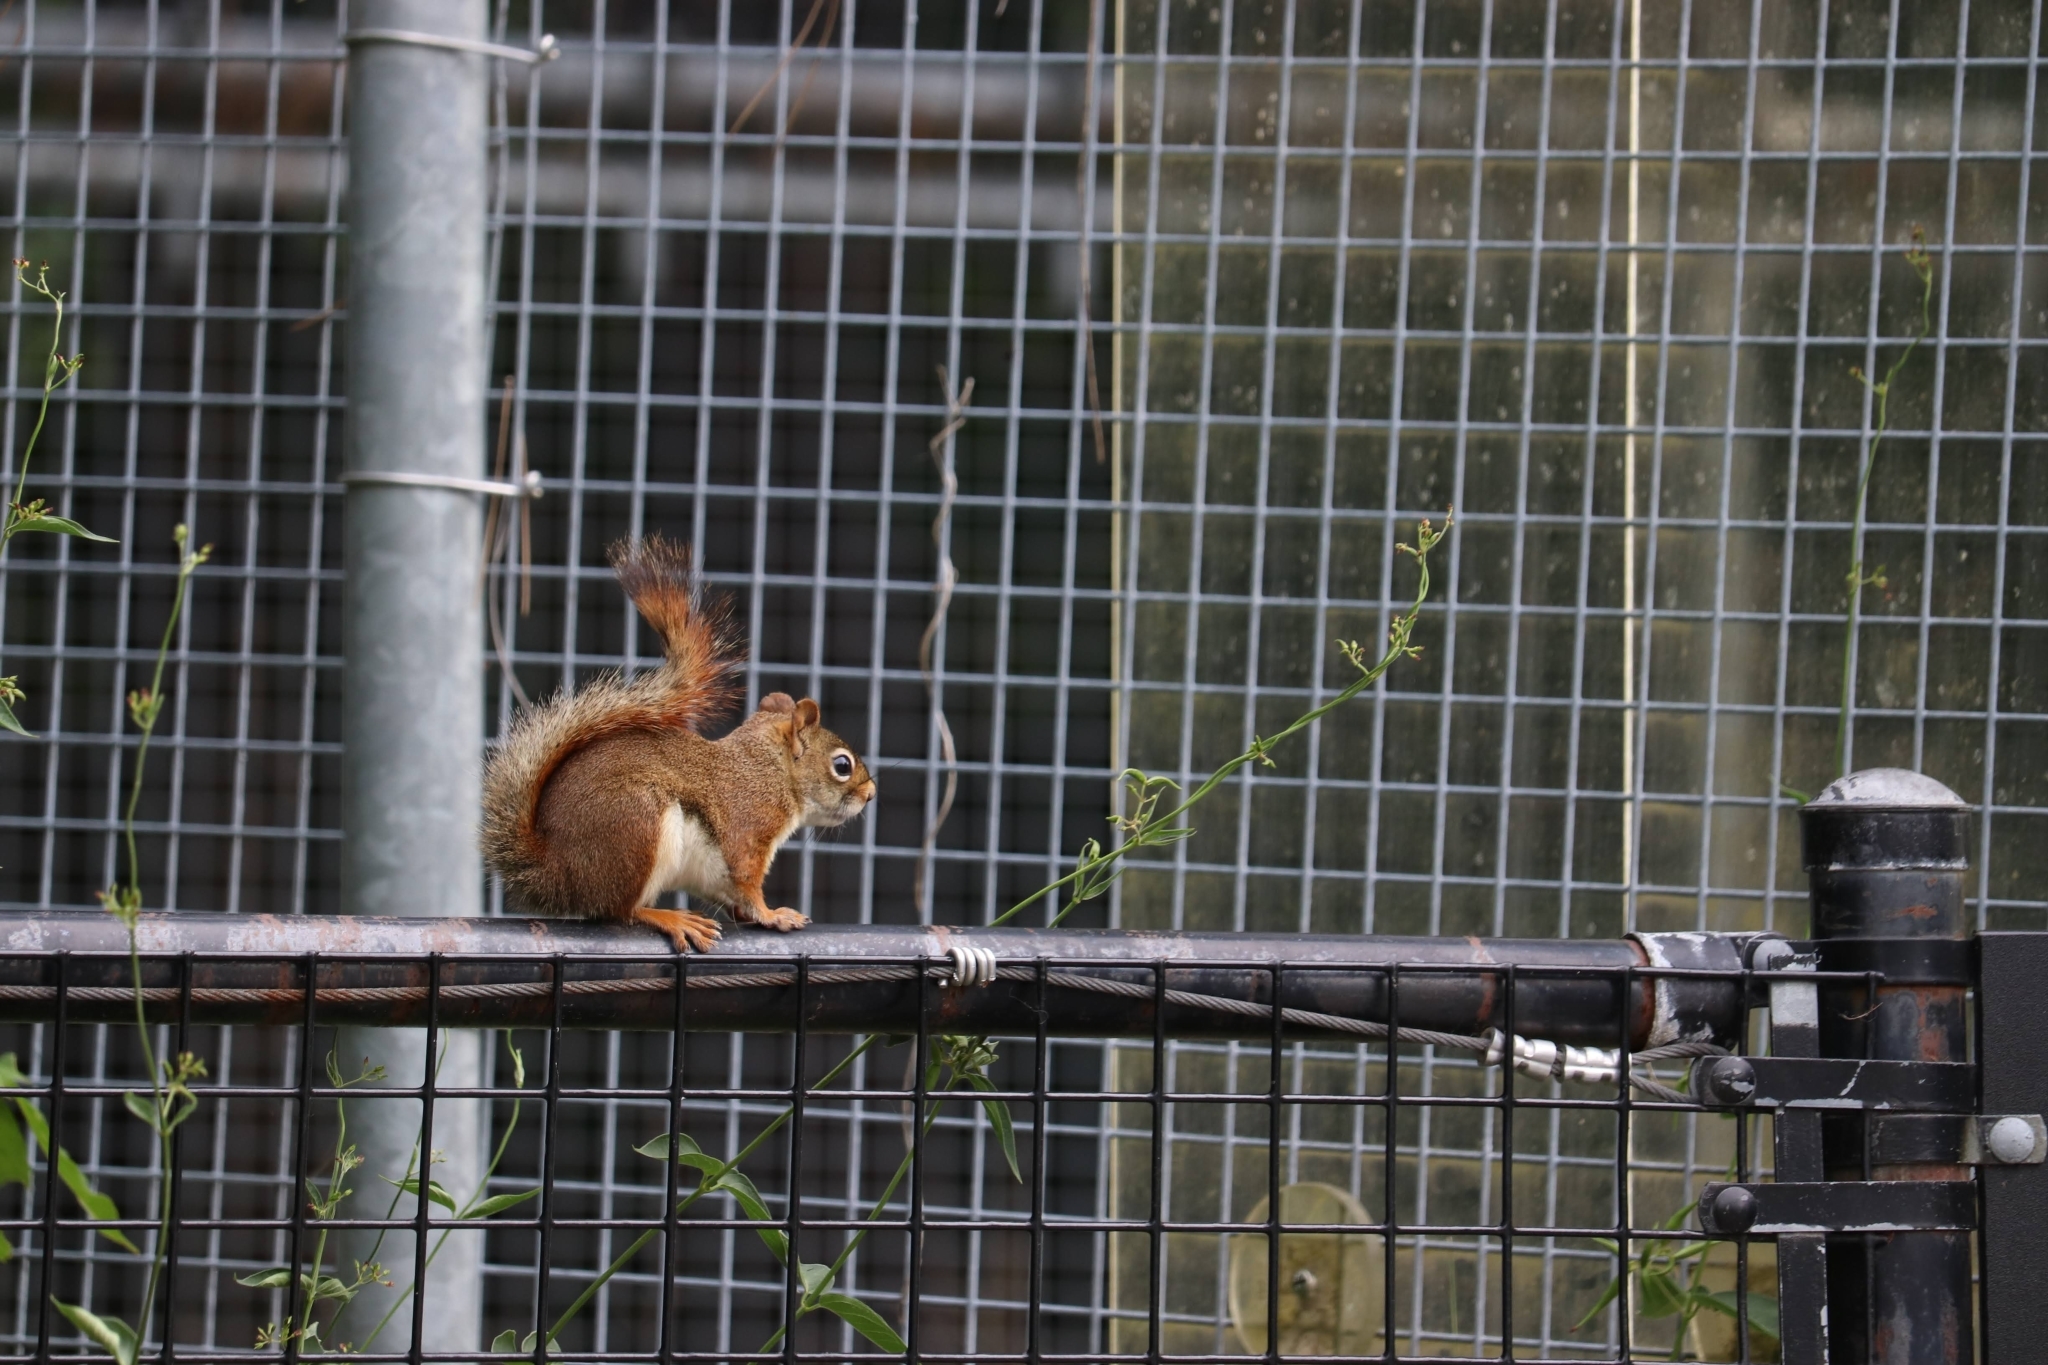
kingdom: Animalia
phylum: Chordata
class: Mammalia
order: Rodentia
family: Sciuridae
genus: Tamiasciurus
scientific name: Tamiasciurus hudsonicus
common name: Red squirrel
